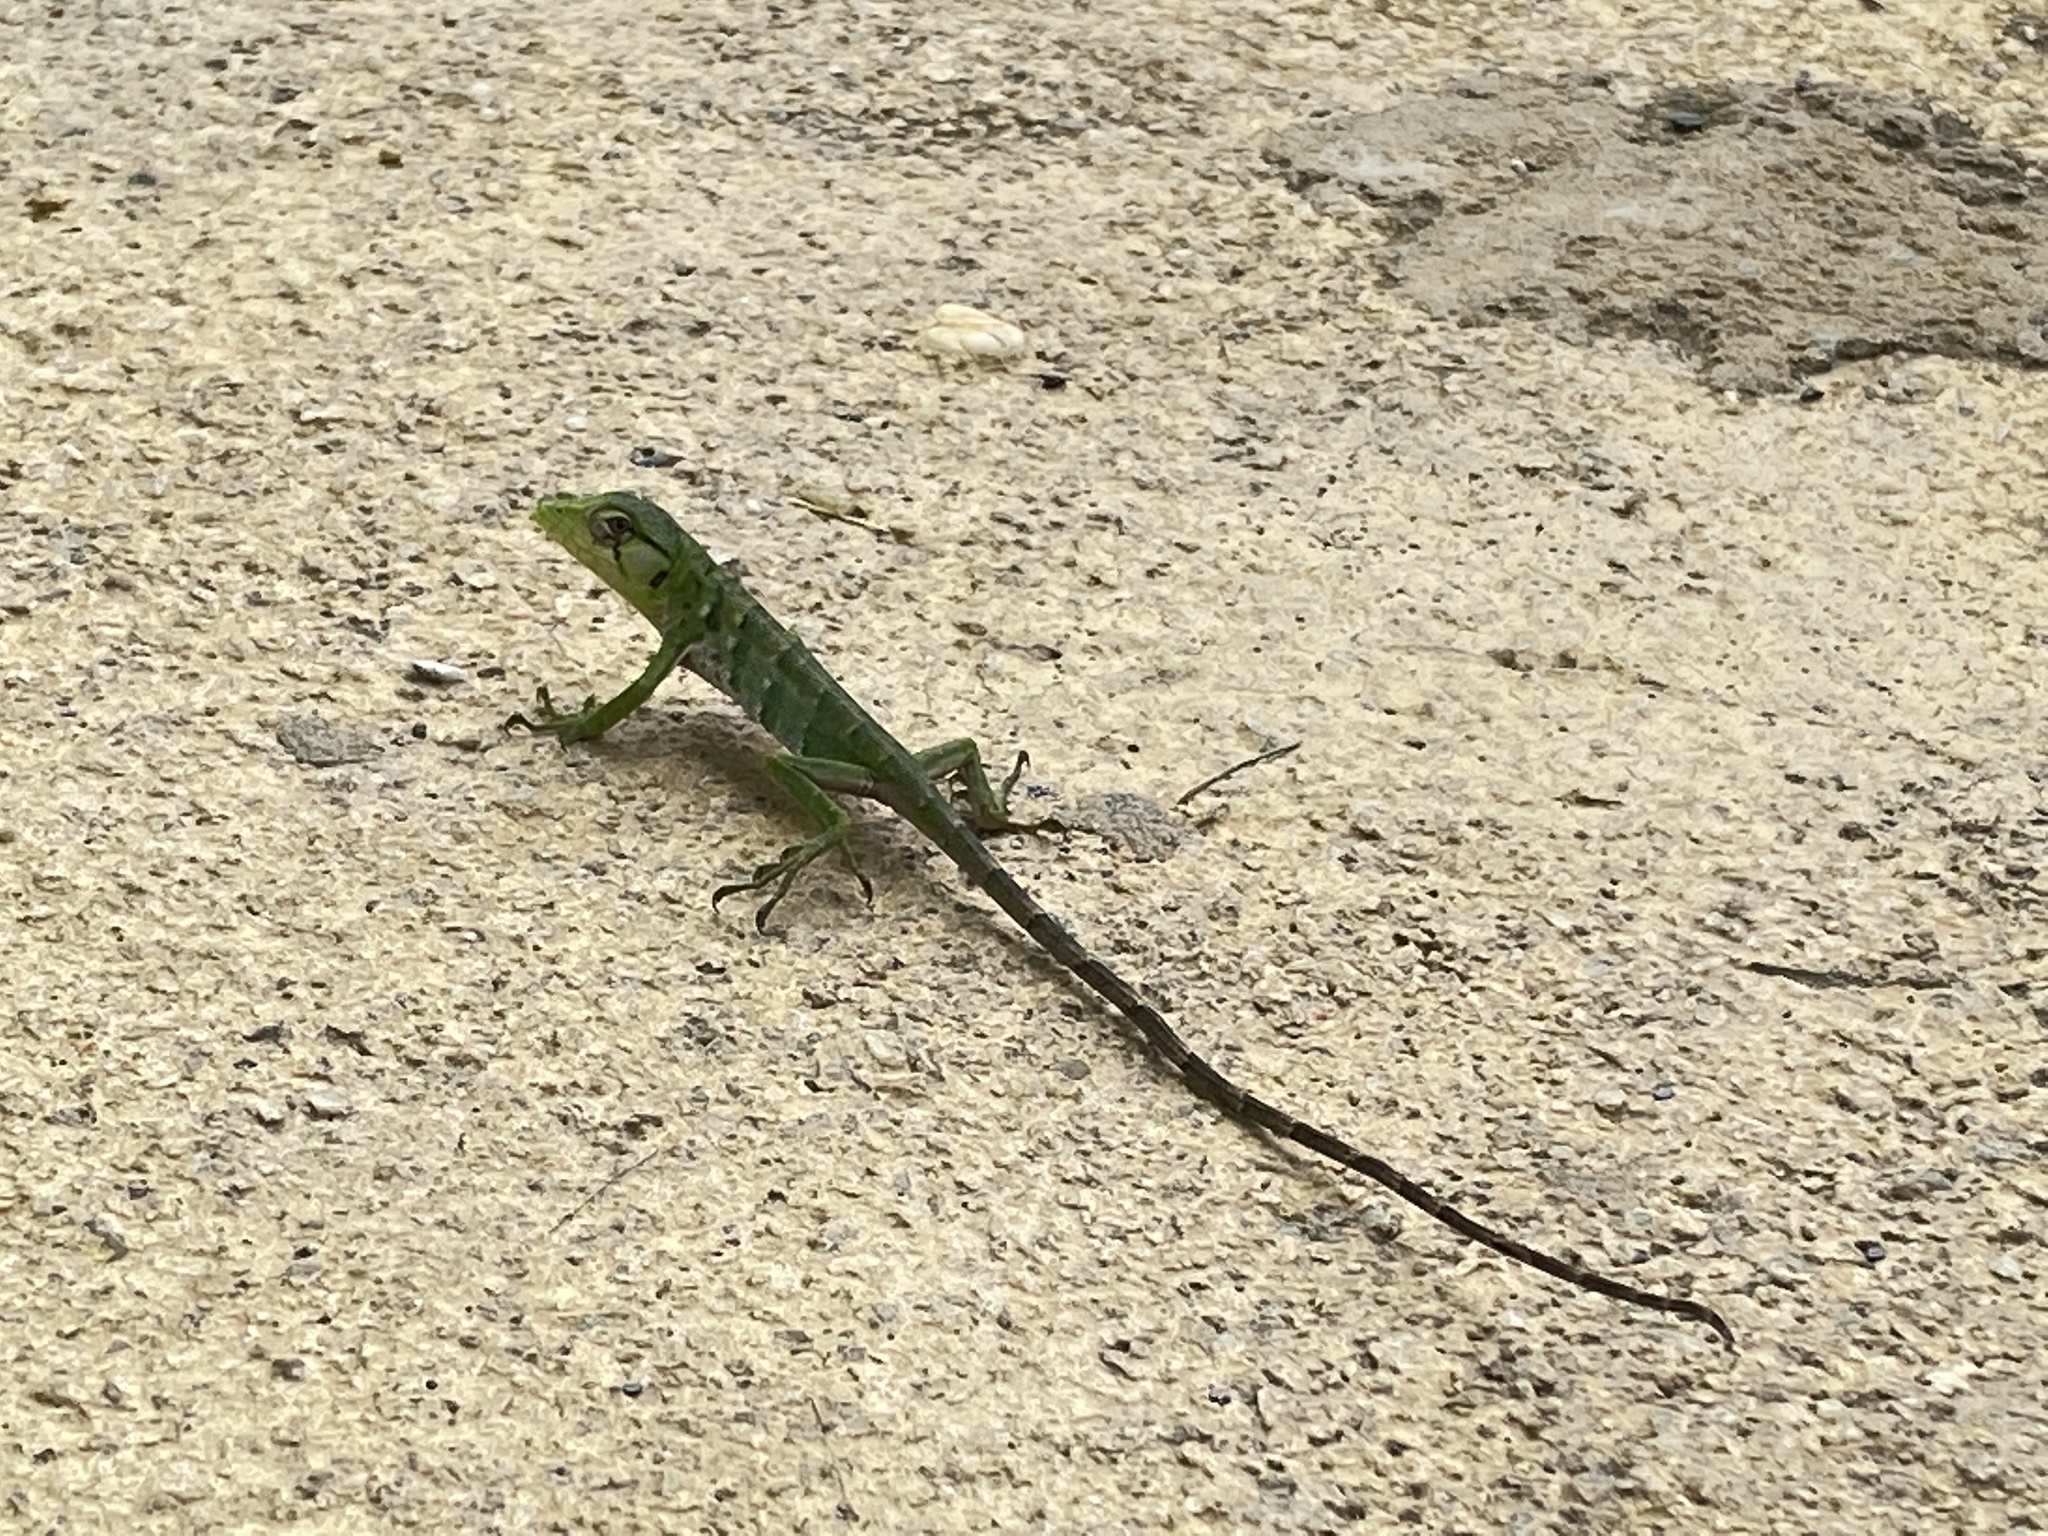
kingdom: Animalia
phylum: Chordata
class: Squamata
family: Polychrotidae
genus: Polychrus
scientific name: Polychrus auduboni
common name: Common monkey lizard
